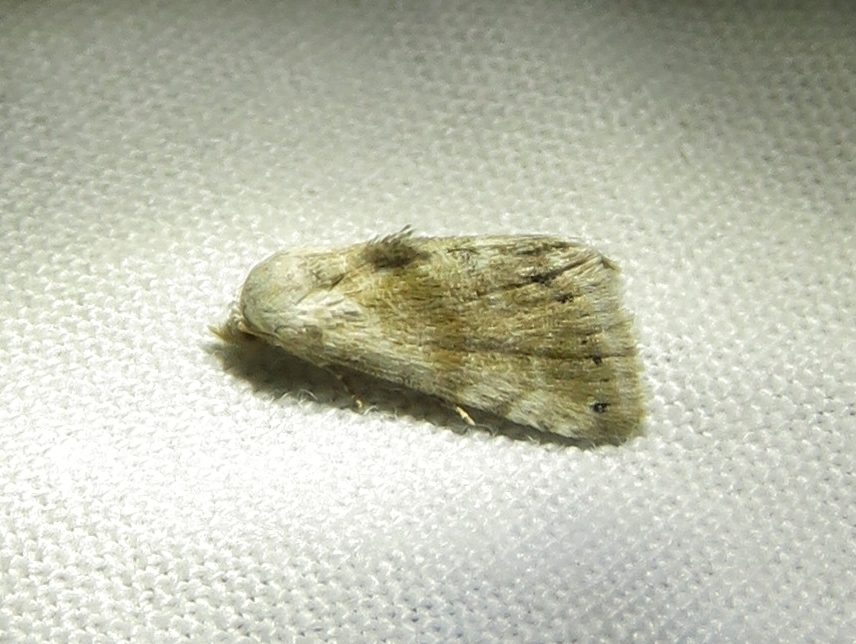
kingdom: Animalia
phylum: Arthropoda
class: Insecta
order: Lepidoptera
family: Noctuidae
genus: Eublemma
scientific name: Eublemma minima
